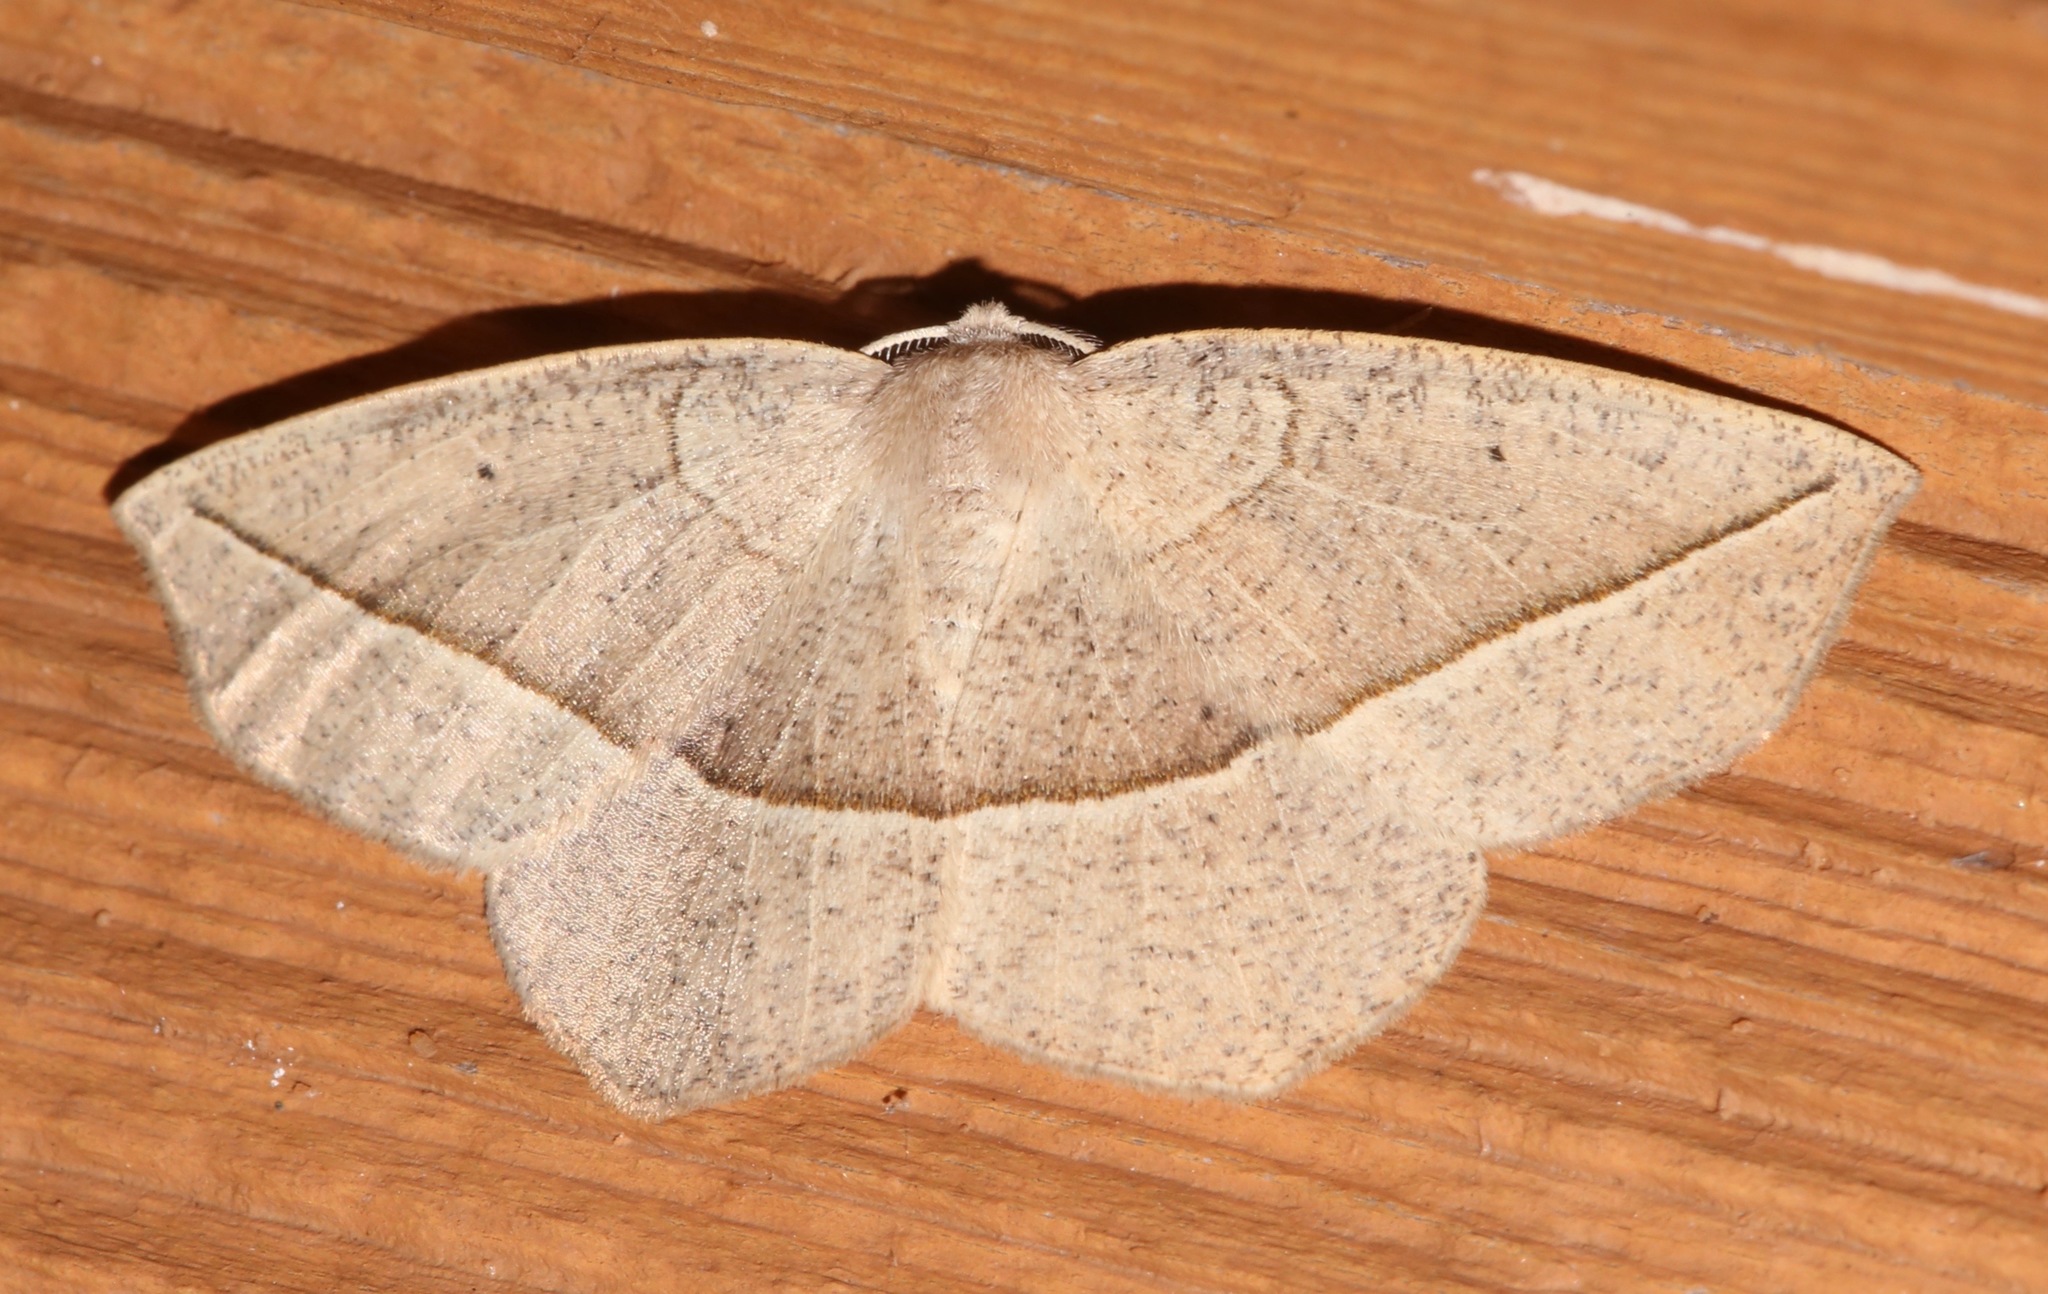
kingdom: Animalia
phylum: Arthropoda
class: Insecta
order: Lepidoptera
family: Geometridae
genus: Eusarca
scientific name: Eusarca confusaria
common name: Confused eusarca
